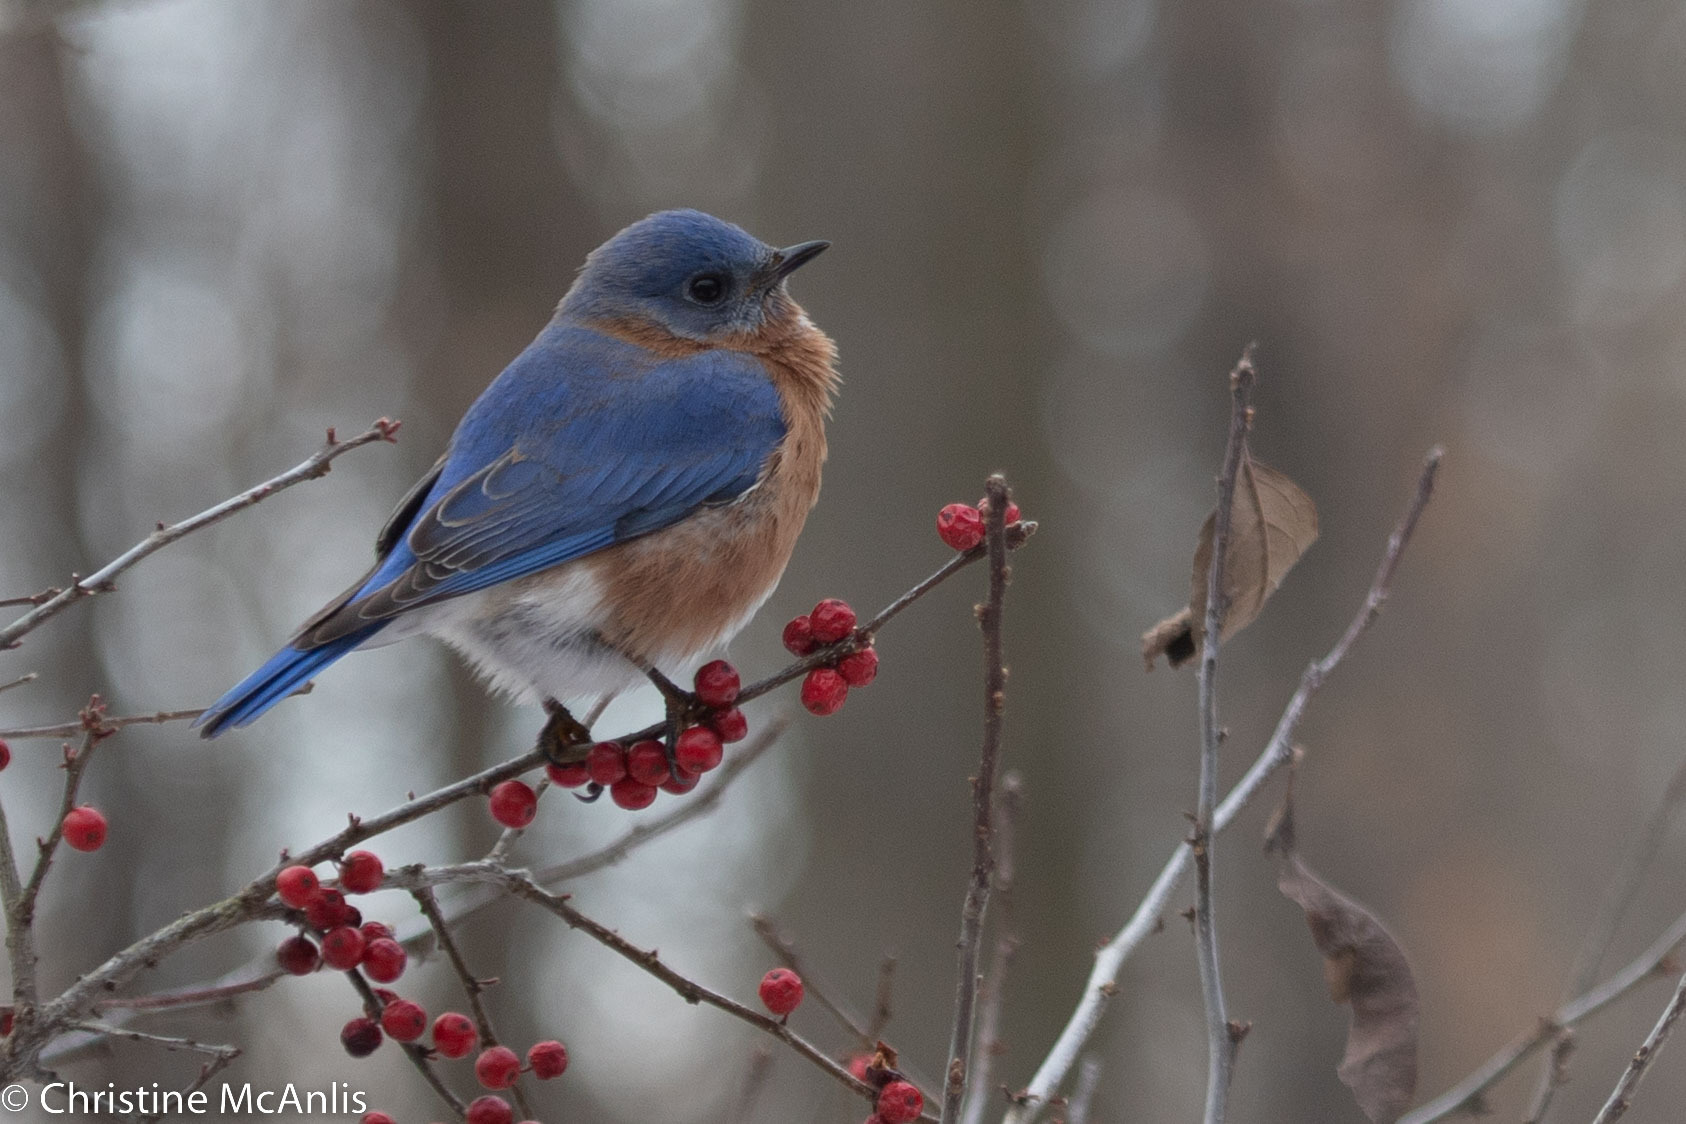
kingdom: Animalia
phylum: Chordata
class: Aves
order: Passeriformes
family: Turdidae
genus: Sialia
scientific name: Sialia sialis
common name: Eastern bluebird
